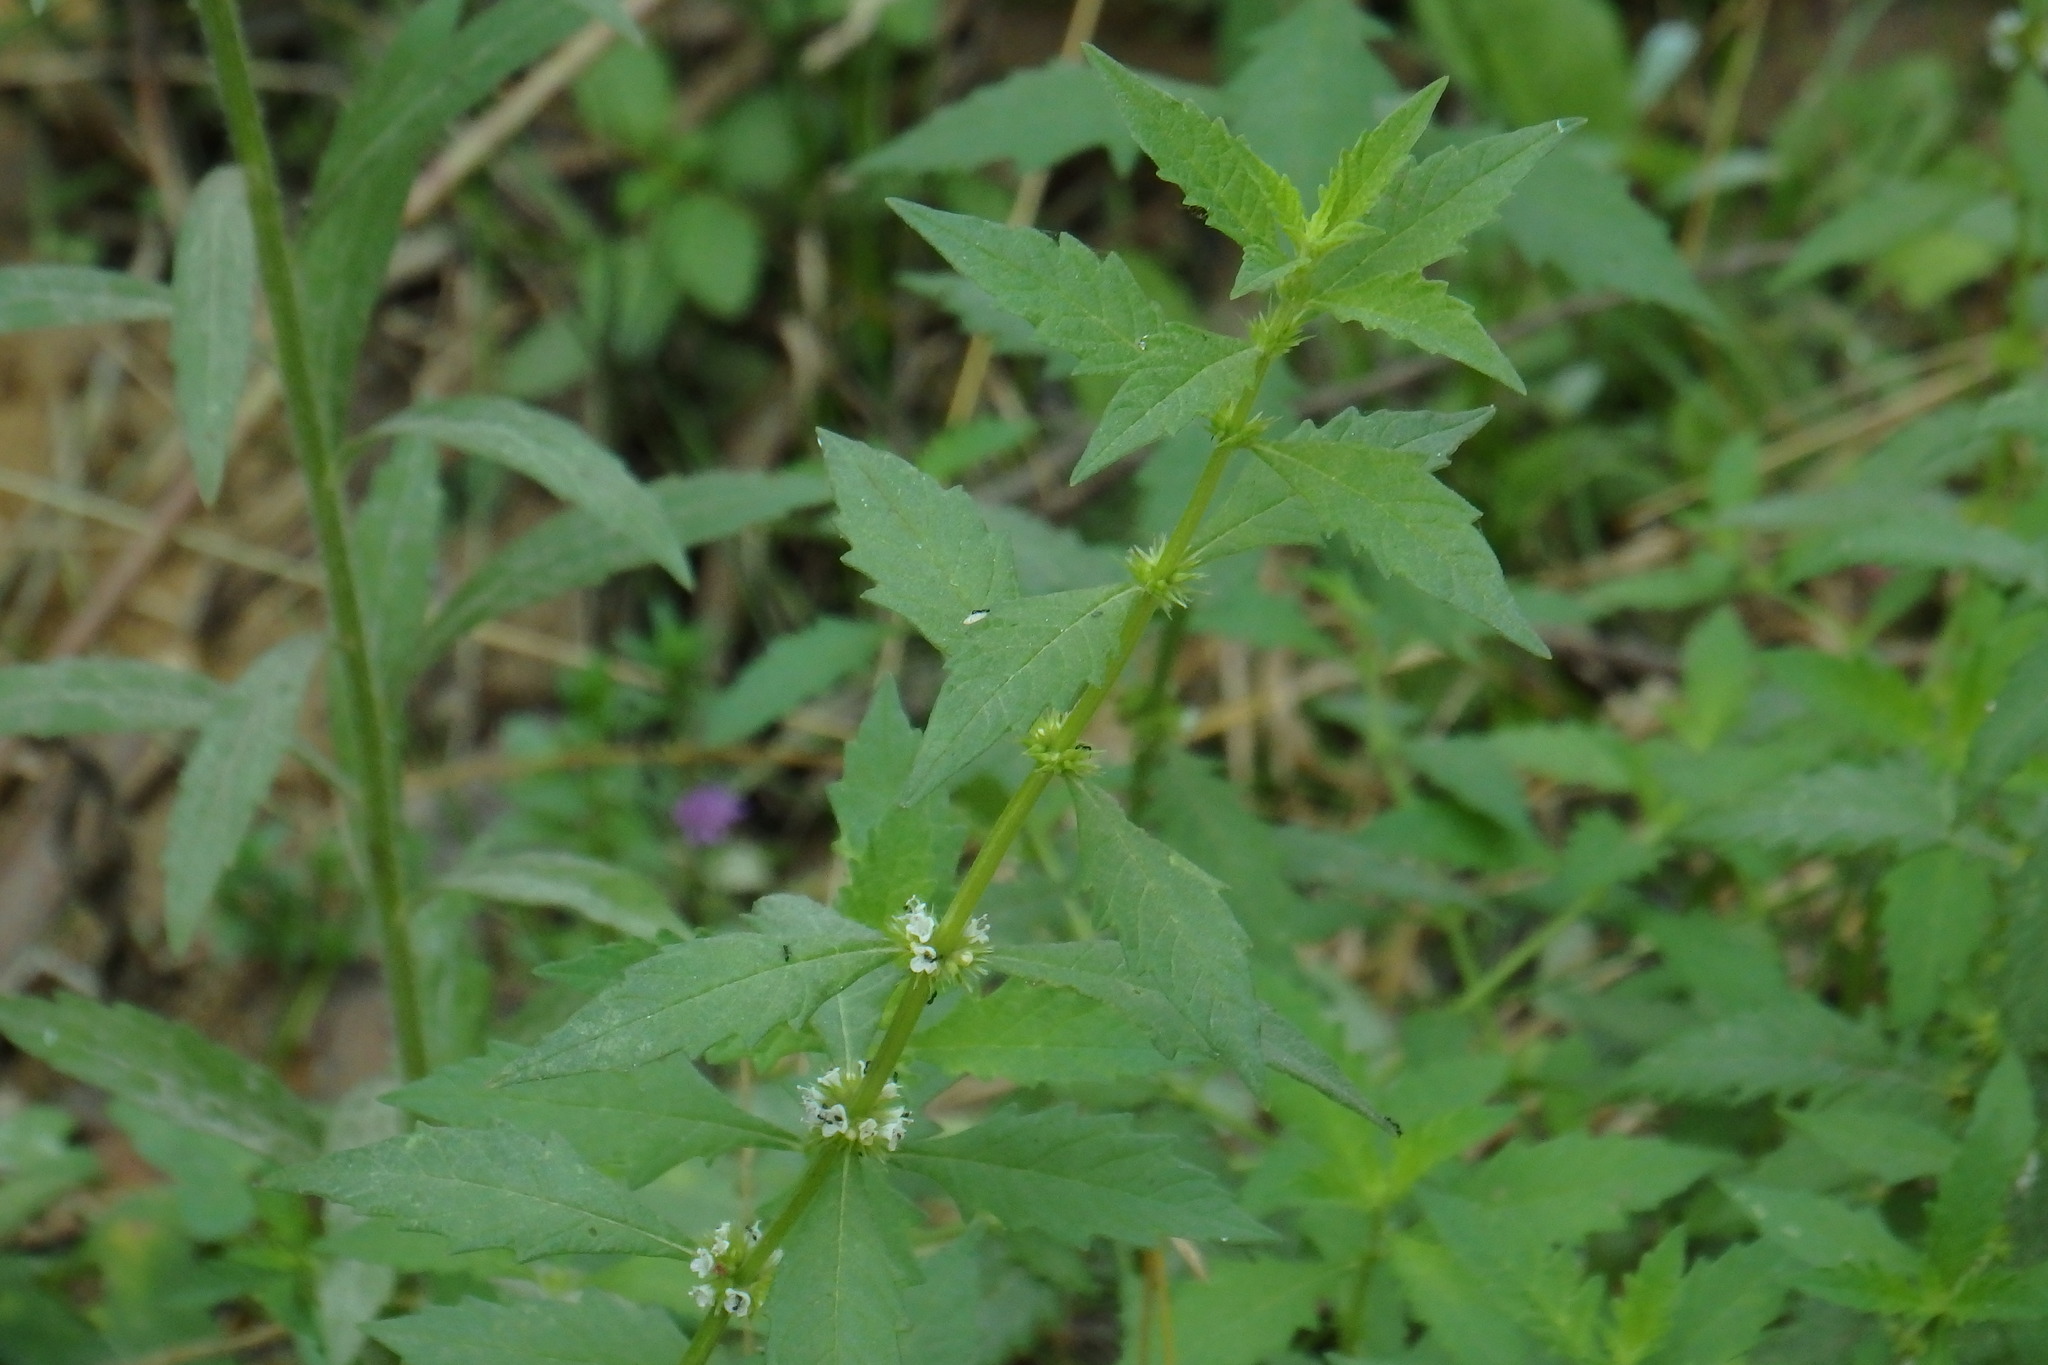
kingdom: Plantae
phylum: Tracheophyta
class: Magnoliopsida
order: Lamiales
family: Lamiaceae
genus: Lycopus
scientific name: Lycopus europaeus
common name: European bugleweed
